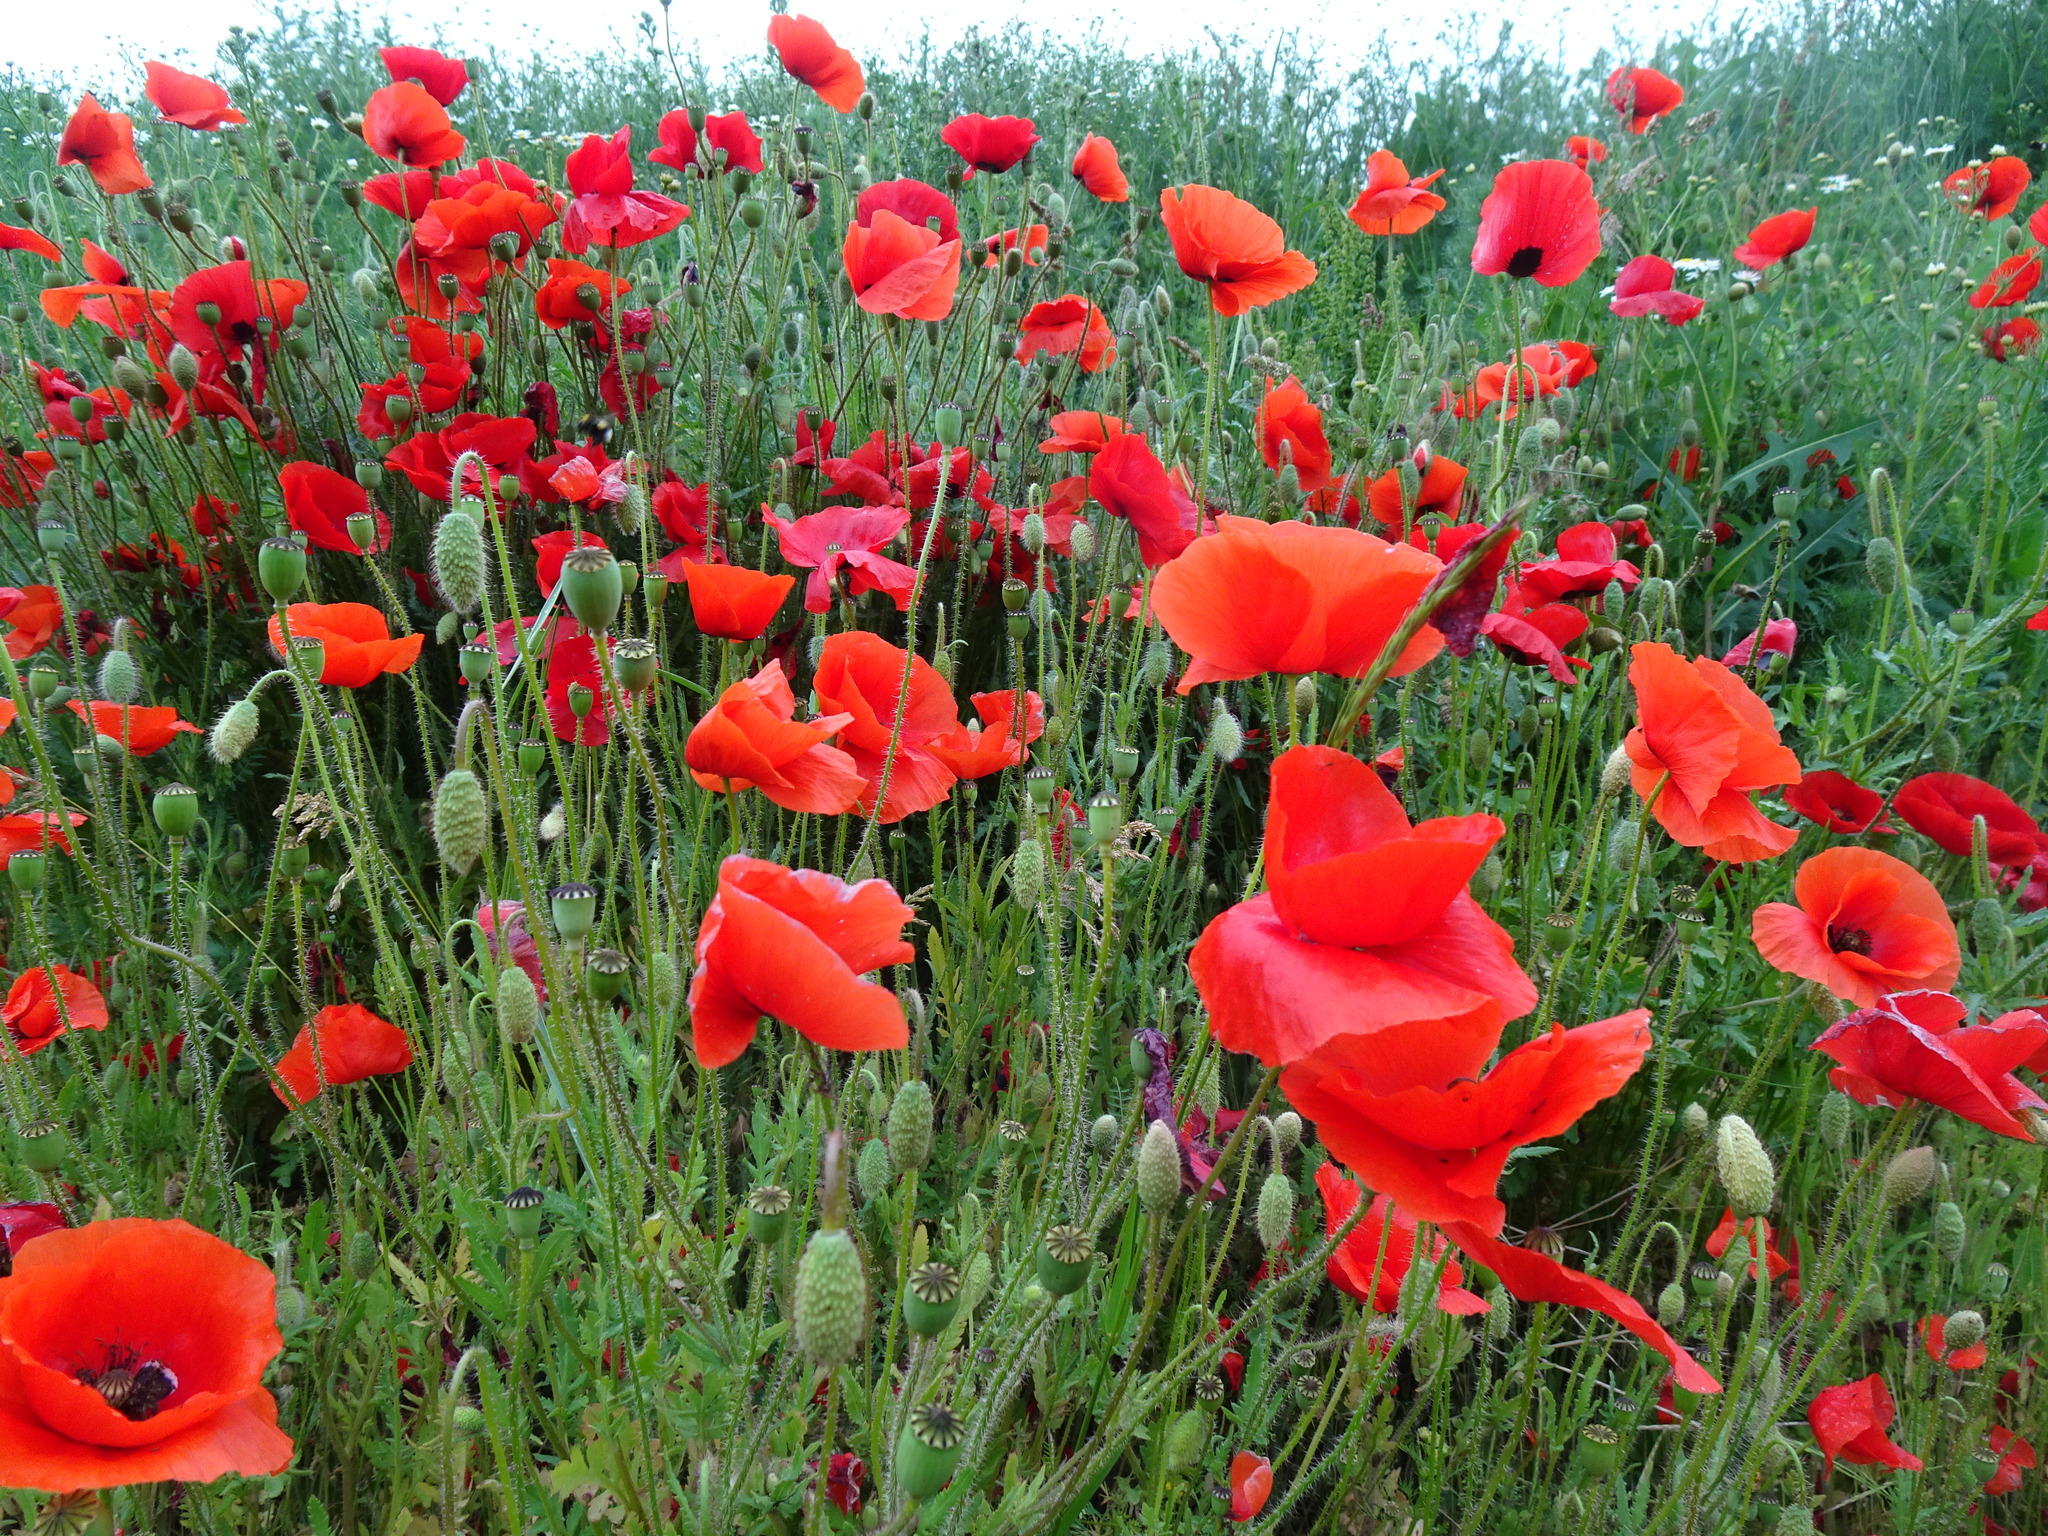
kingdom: Plantae
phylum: Tracheophyta
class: Magnoliopsida
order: Ranunculales
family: Papaveraceae
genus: Papaver
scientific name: Papaver rhoeas
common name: Corn poppy
